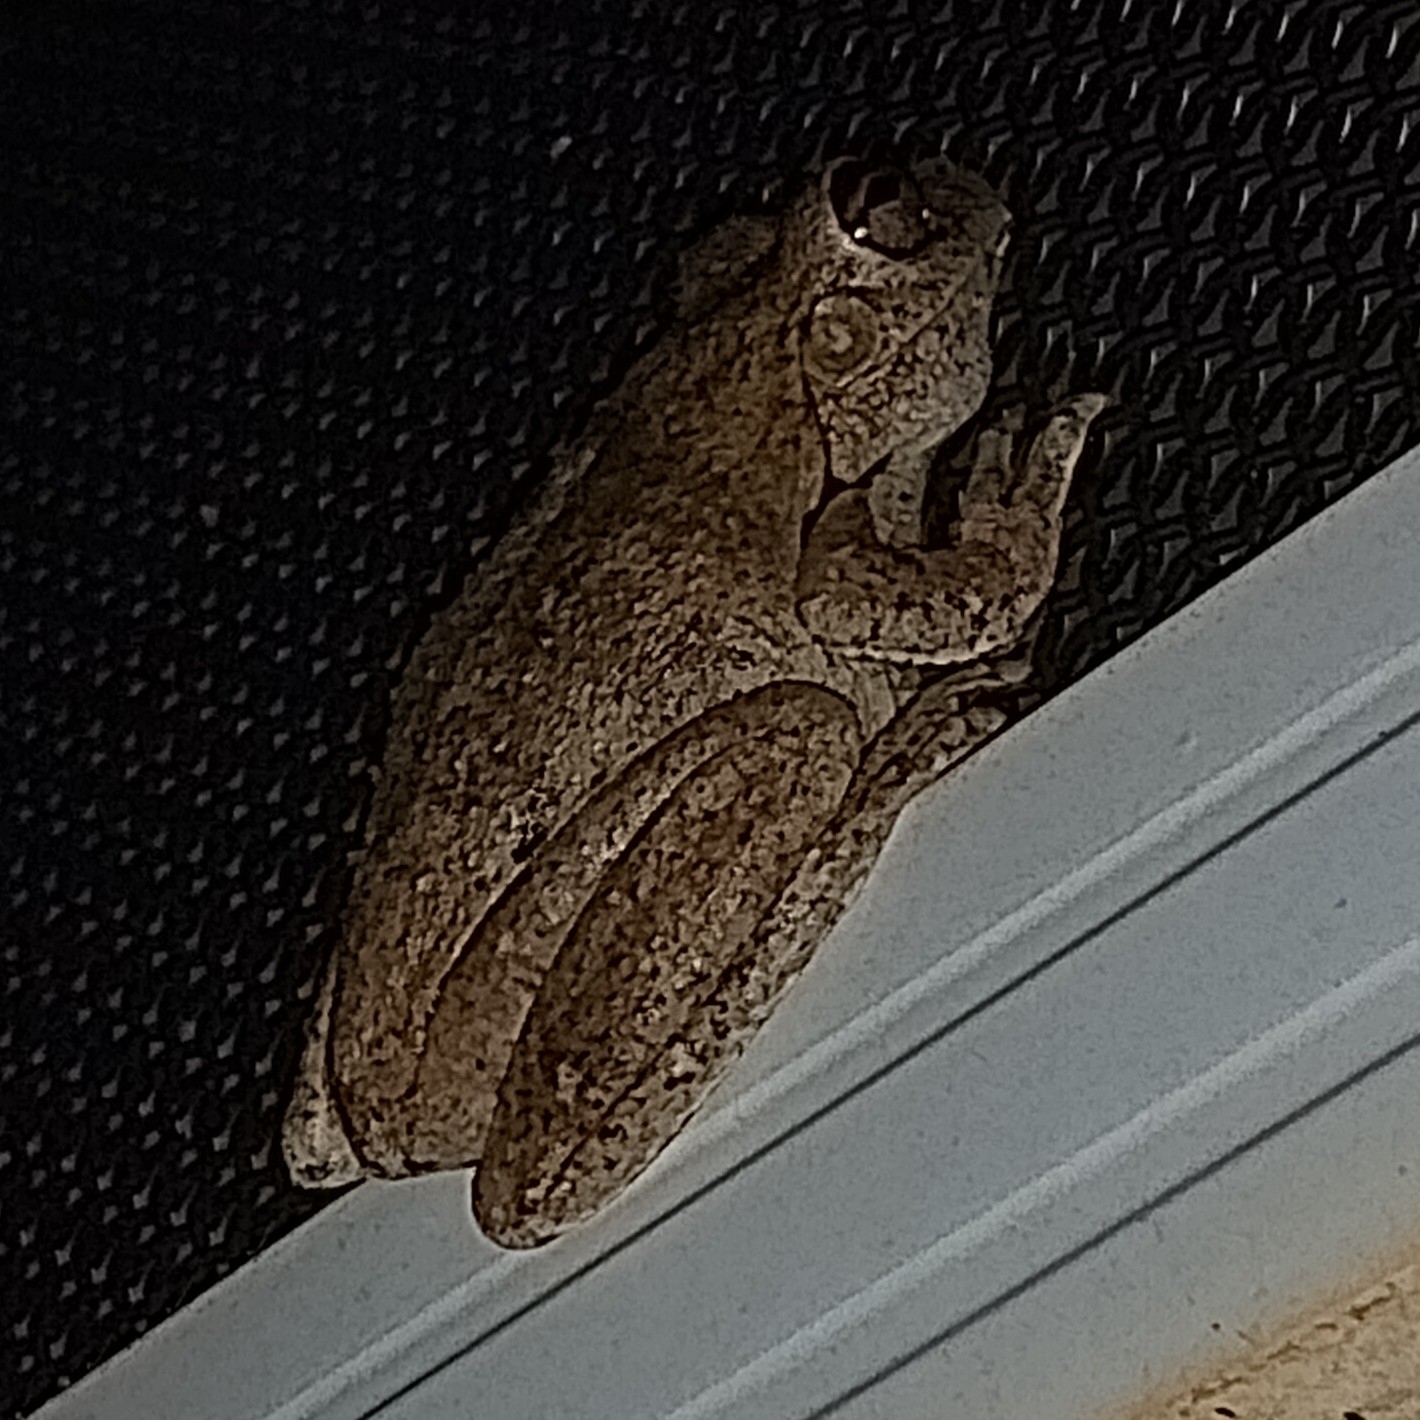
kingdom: Animalia
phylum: Chordata
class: Amphibia
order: Anura
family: Pelodryadidae
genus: Litoria
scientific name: Litoria
